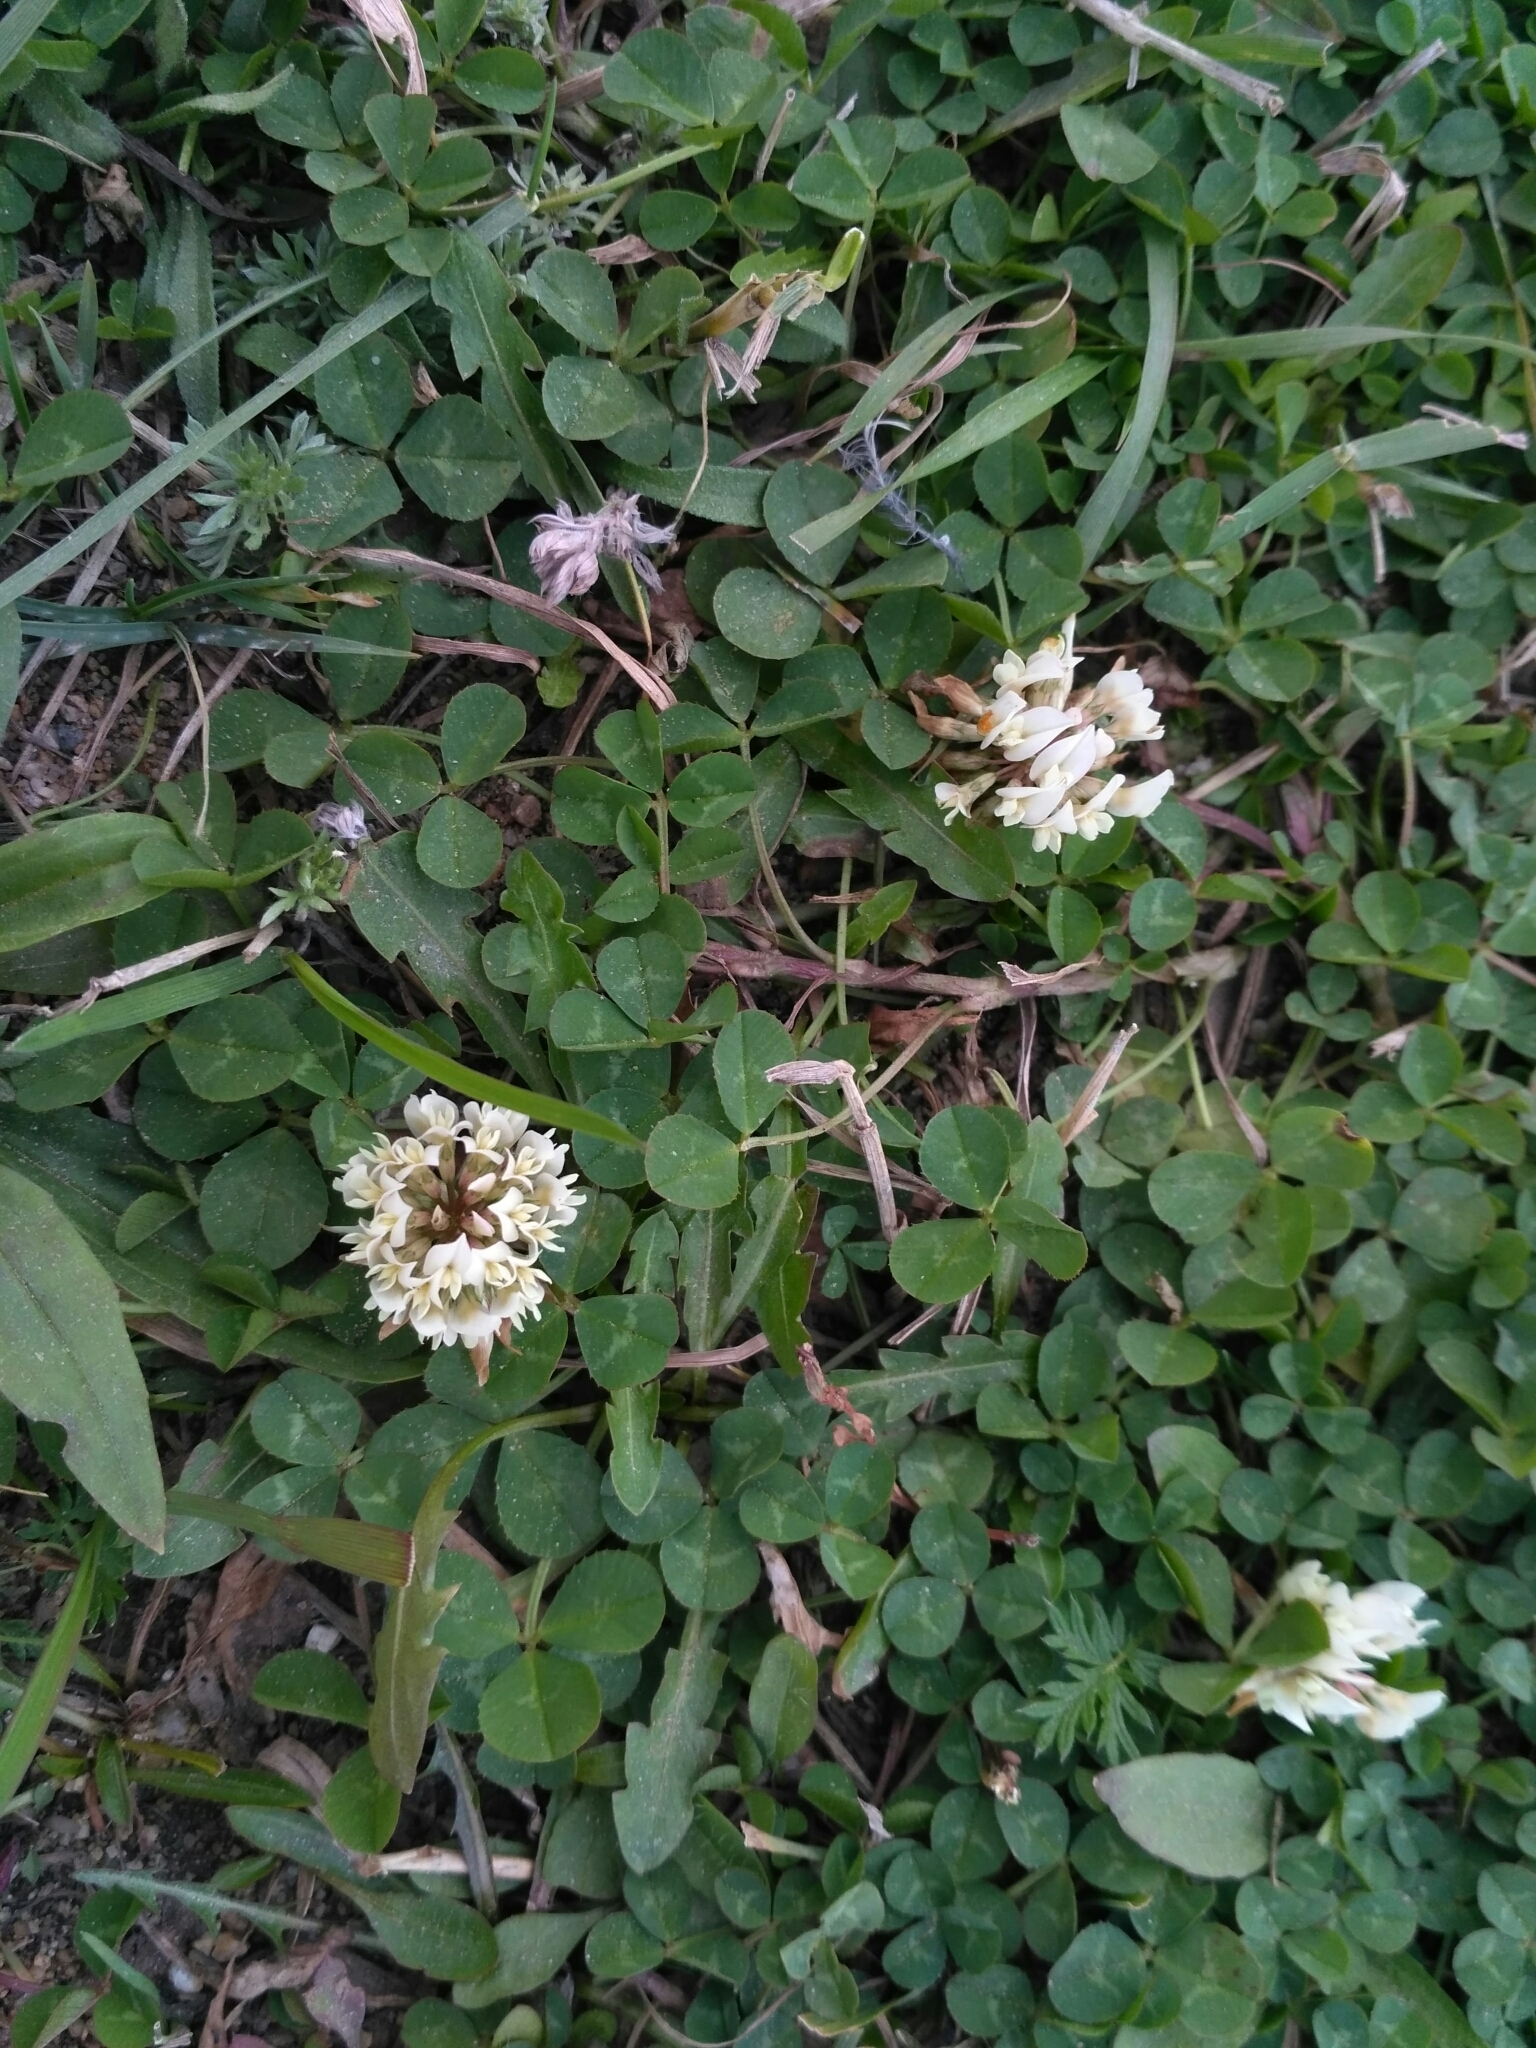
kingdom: Plantae
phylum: Tracheophyta
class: Magnoliopsida
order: Fabales
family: Fabaceae
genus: Trifolium
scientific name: Trifolium repens
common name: White clover
